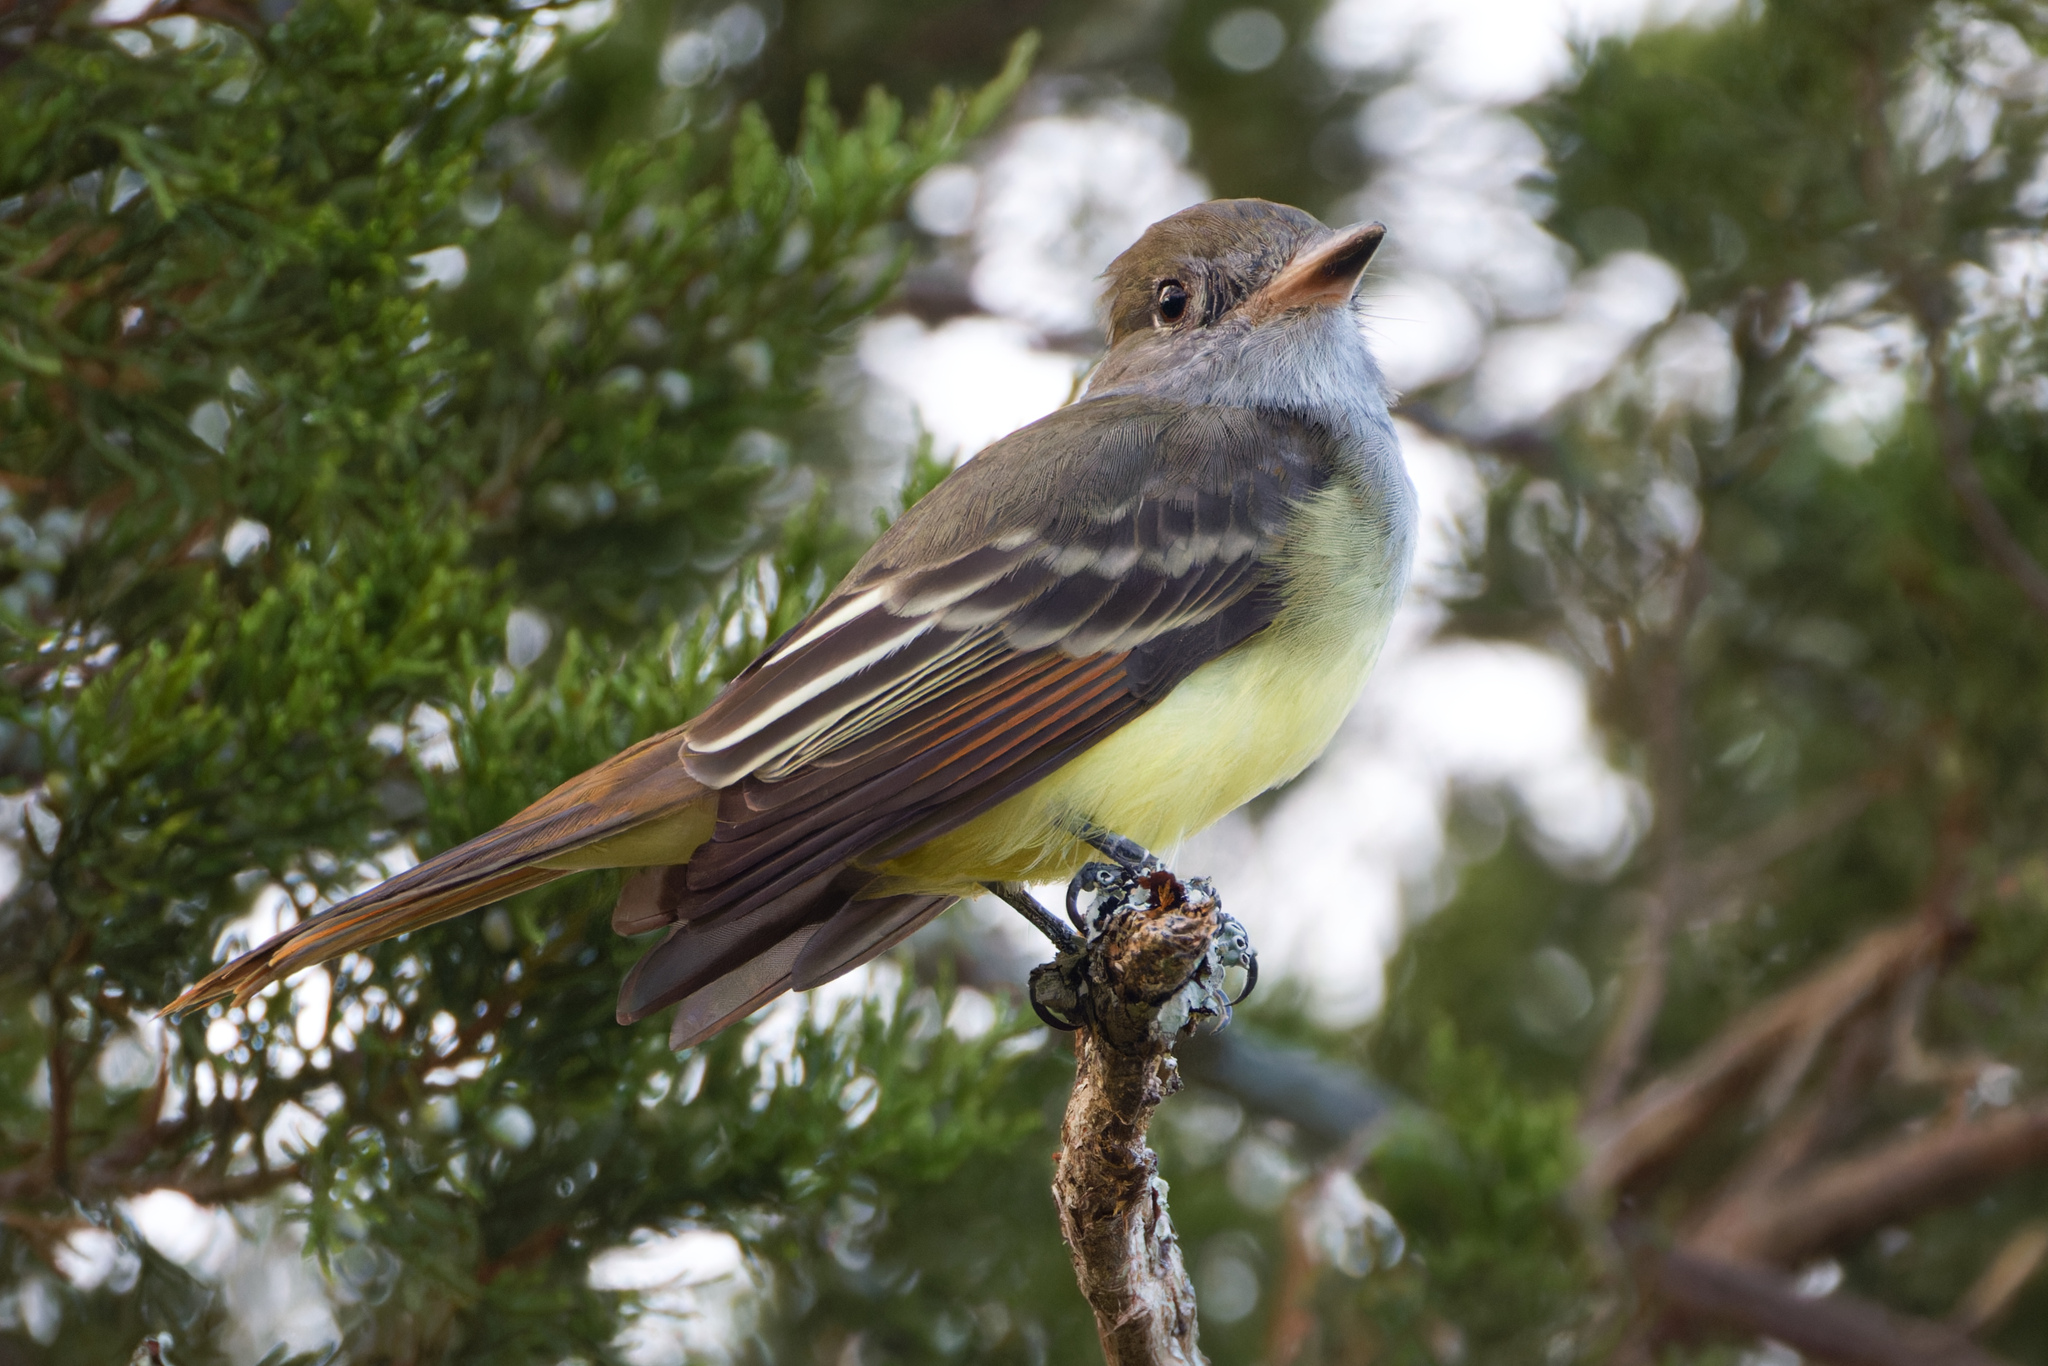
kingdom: Animalia
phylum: Chordata
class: Aves
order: Passeriformes
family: Tyrannidae
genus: Myiarchus
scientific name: Myiarchus crinitus
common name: Great crested flycatcher
